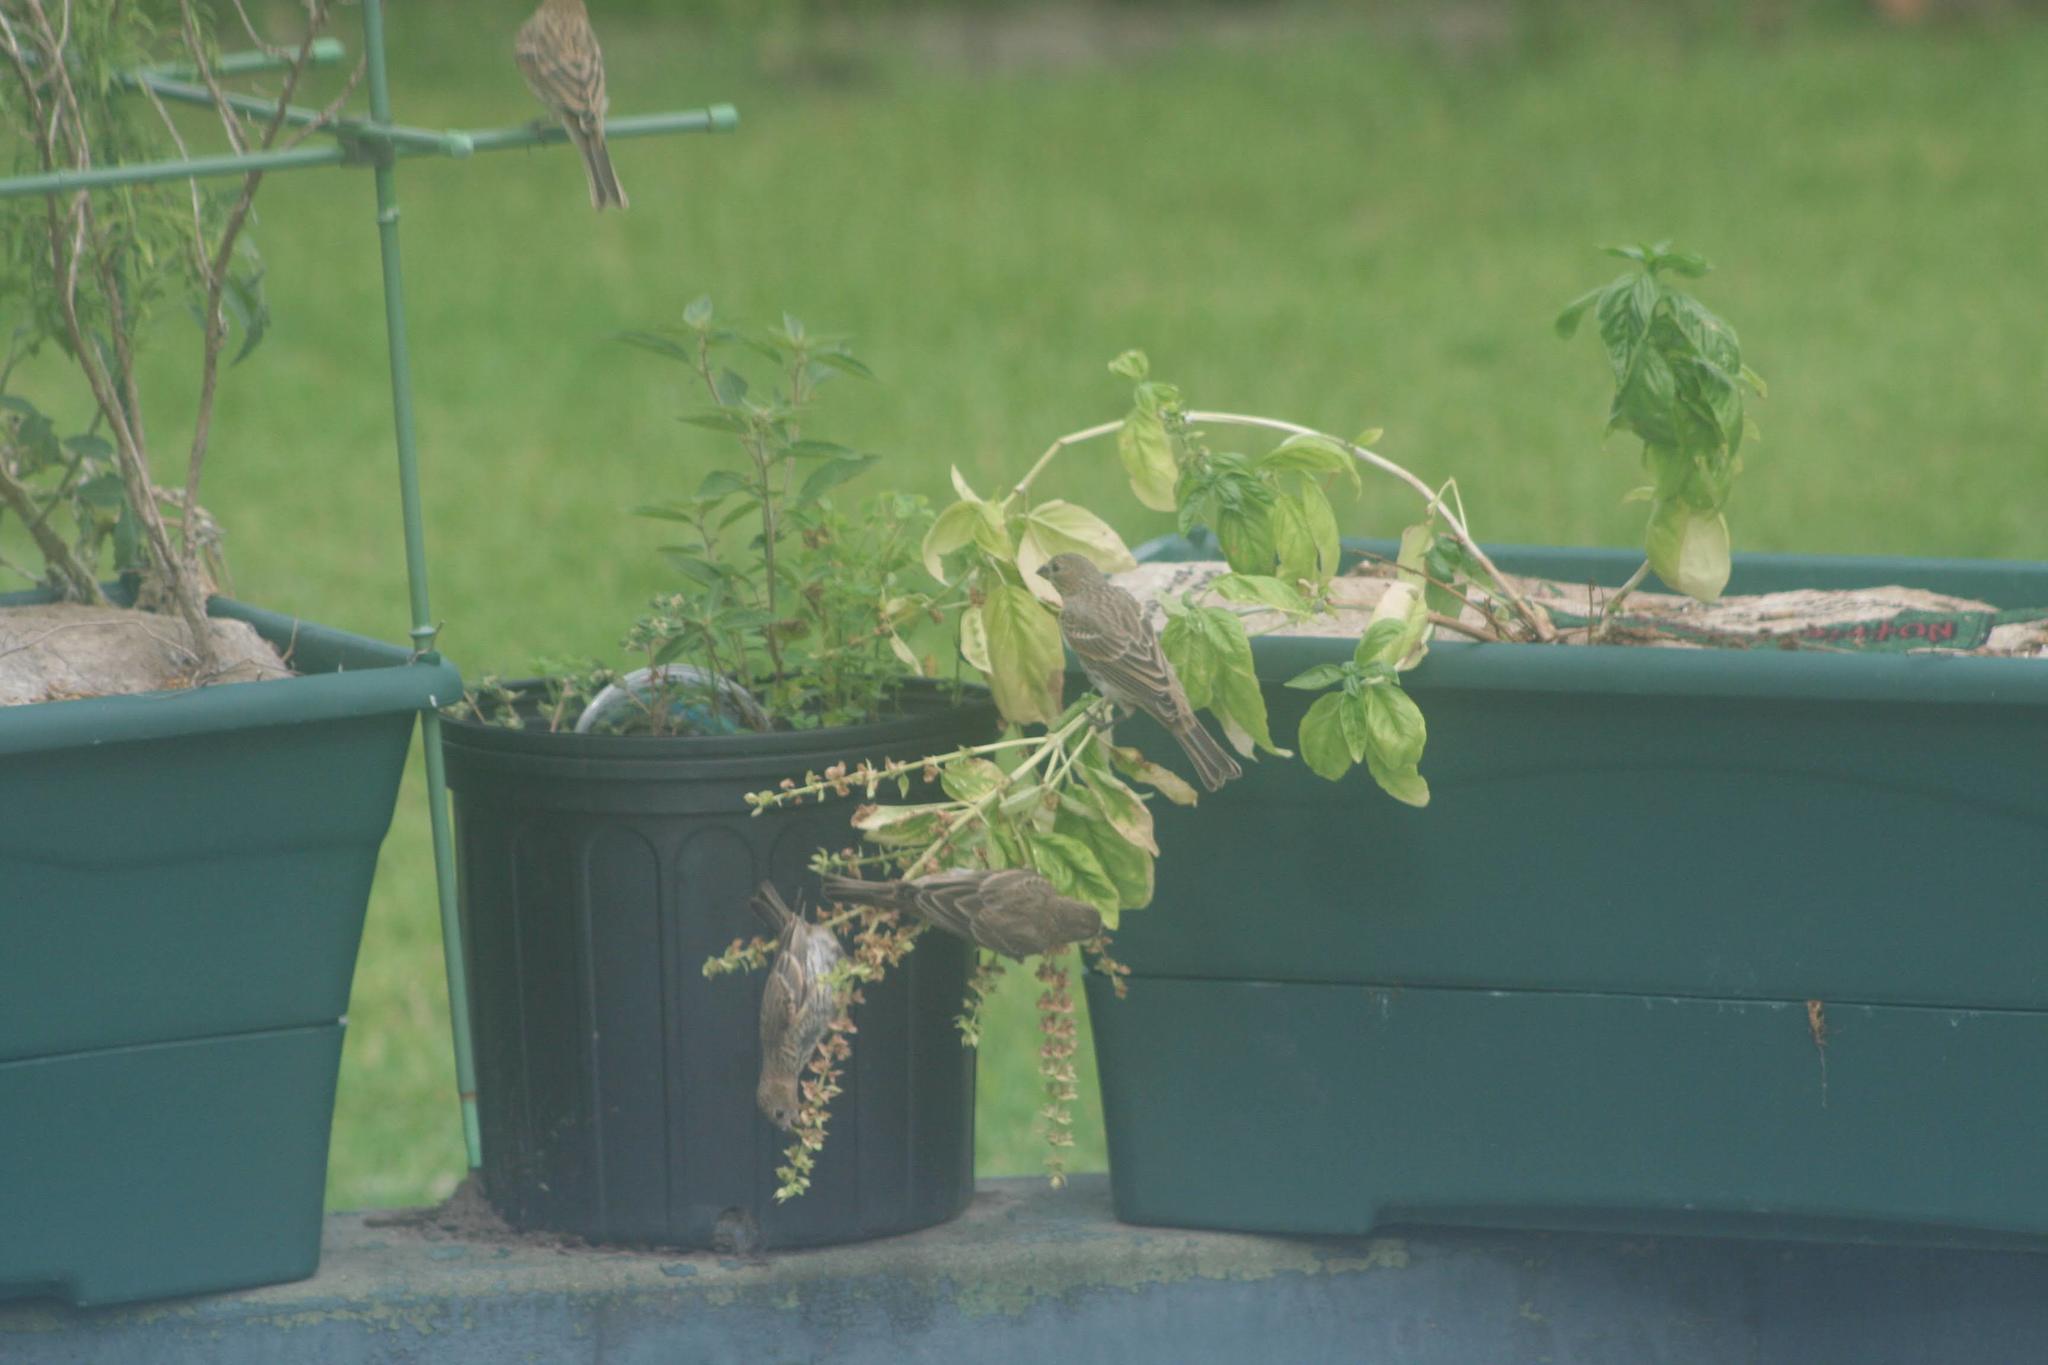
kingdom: Animalia
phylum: Chordata
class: Aves
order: Passeriformes
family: Passeridae
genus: Passer
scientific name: Passer domesticus
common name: House sparrow
